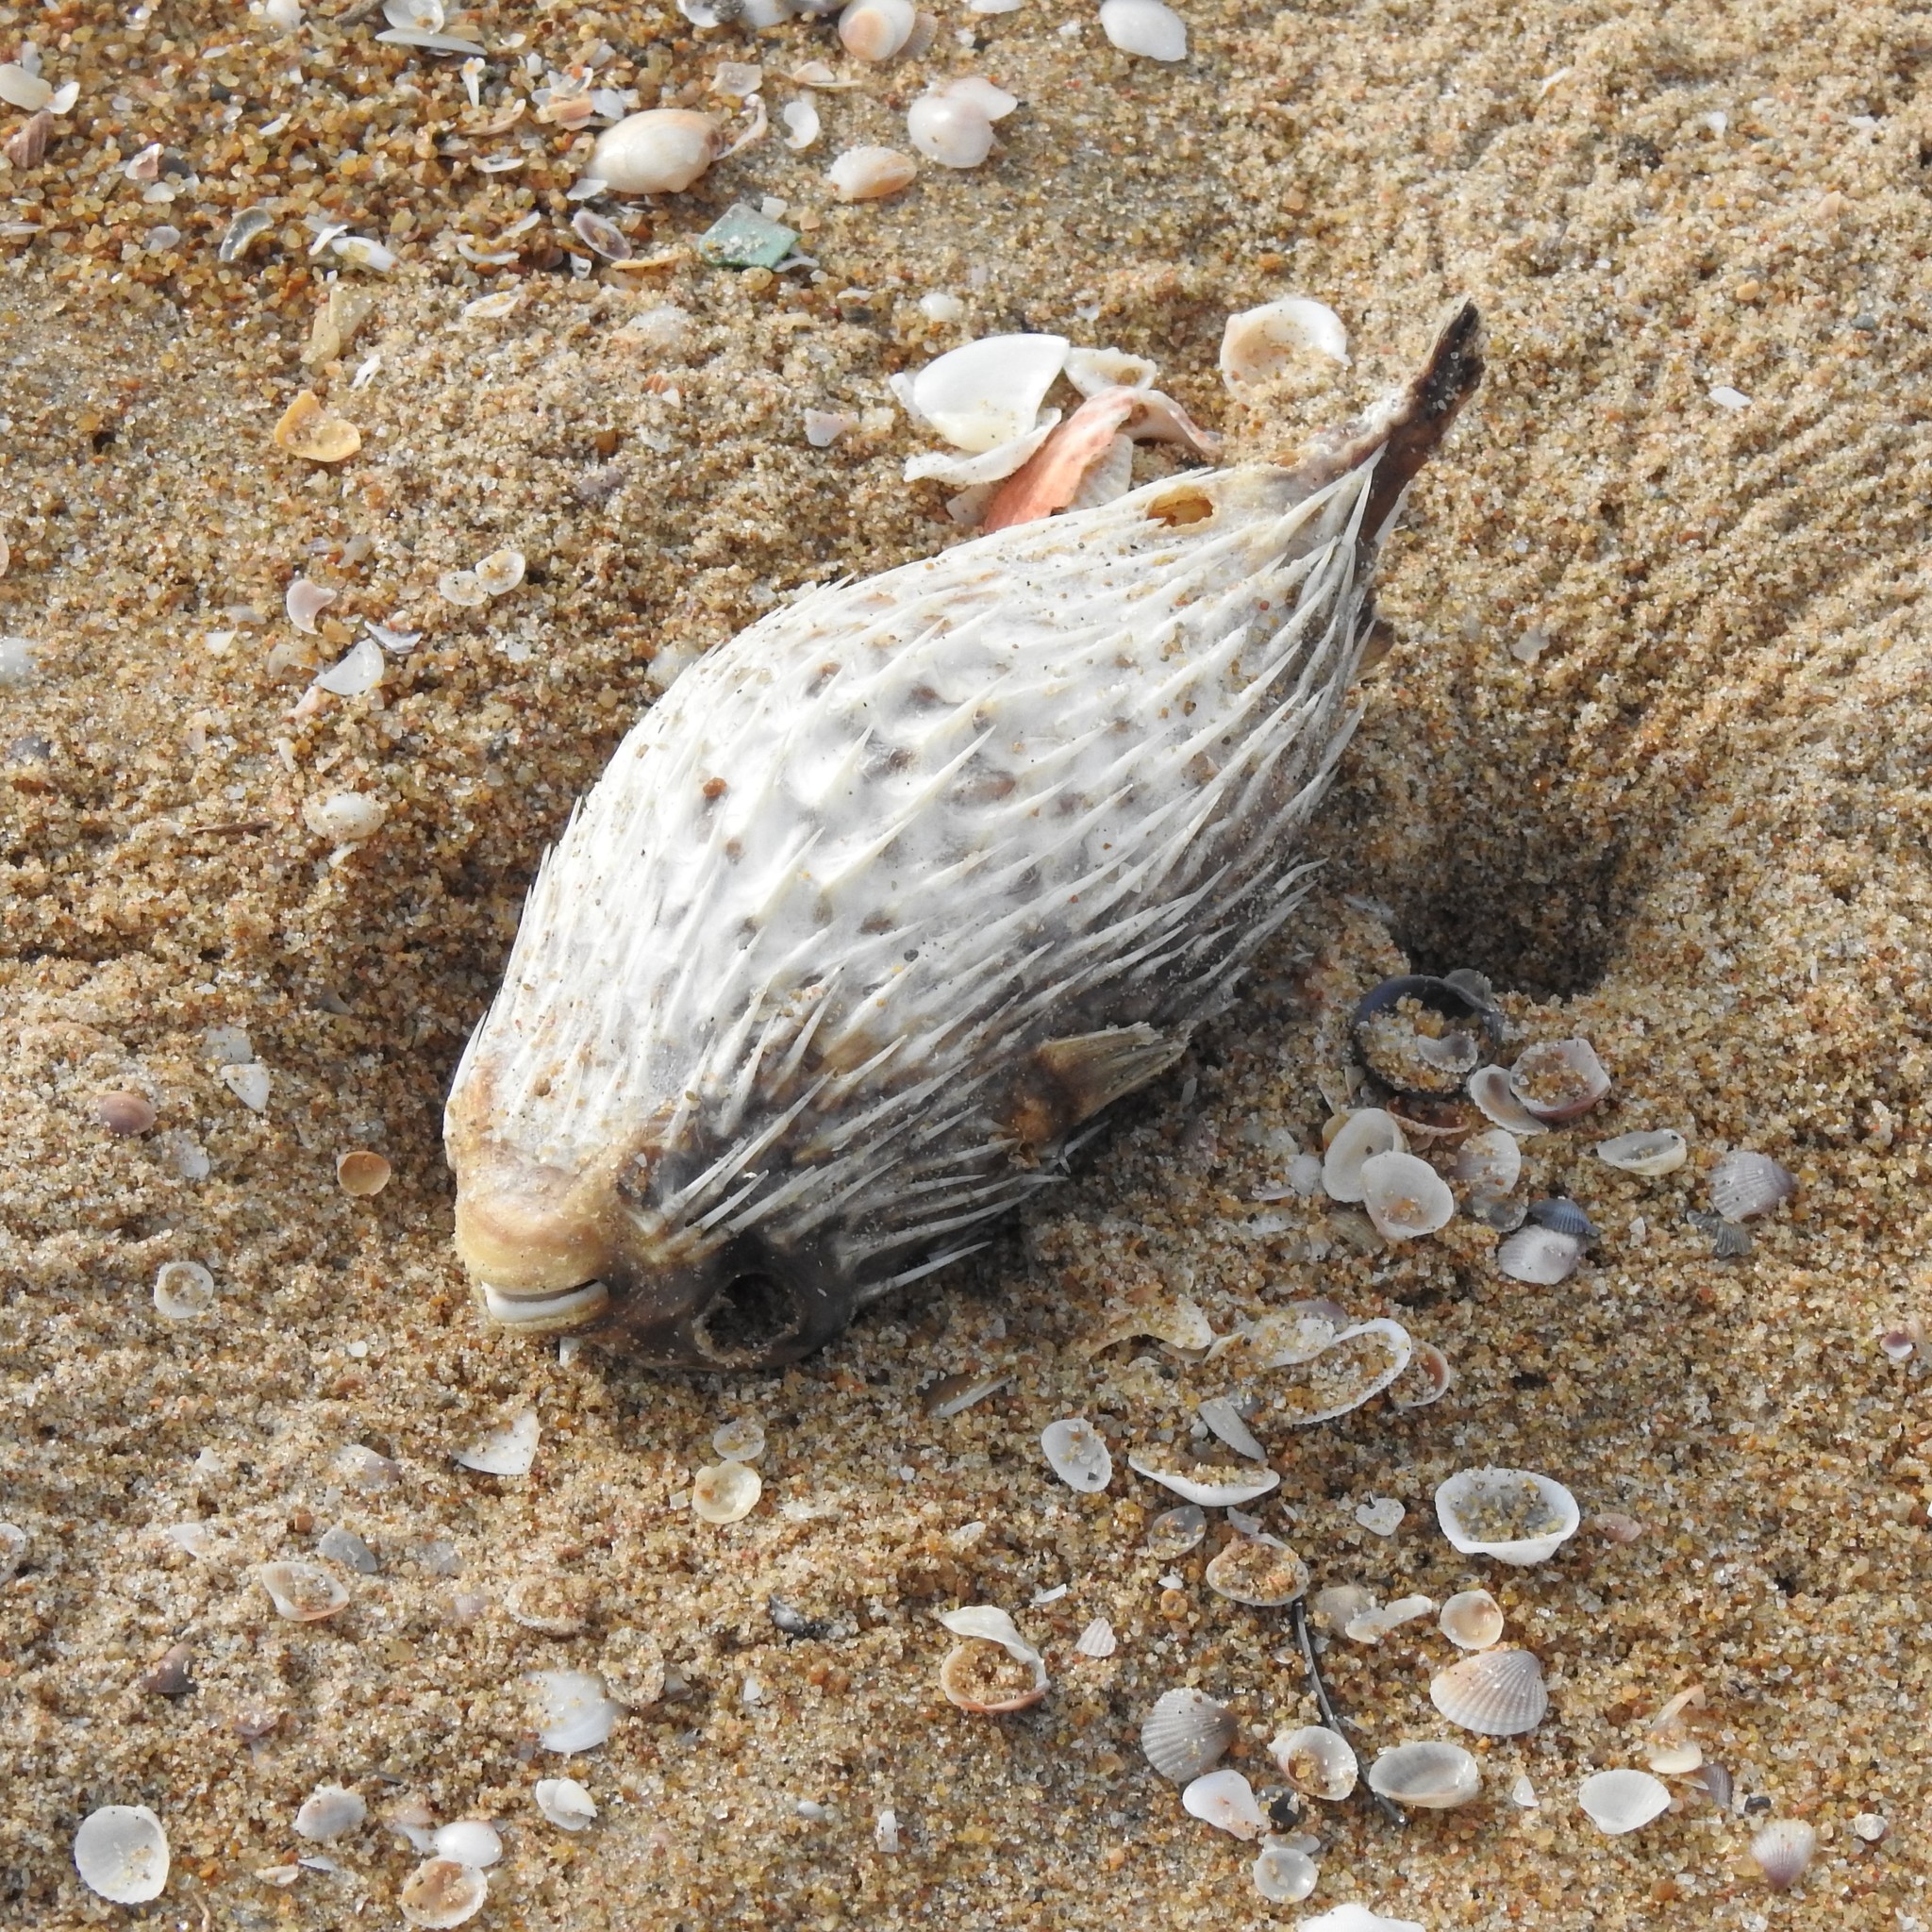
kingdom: Animalia
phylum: Chordata
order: Tetraodontiformes
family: Diodontidae
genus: Diodon
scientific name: Diodon holocanthus
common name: Balloonfish
